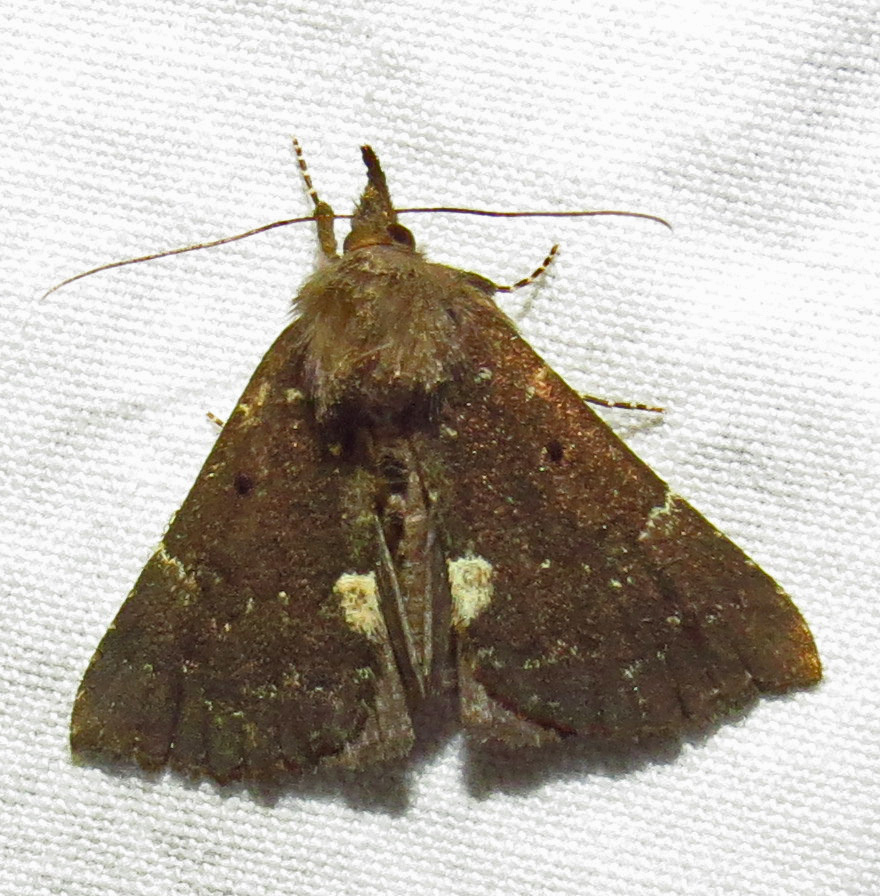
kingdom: Animalia
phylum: Arthropoda
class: Insecta
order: Lepidoptera
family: Erebidae
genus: Hypena
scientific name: Hypena bijugalis
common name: Dimorphic bomolocha moth
